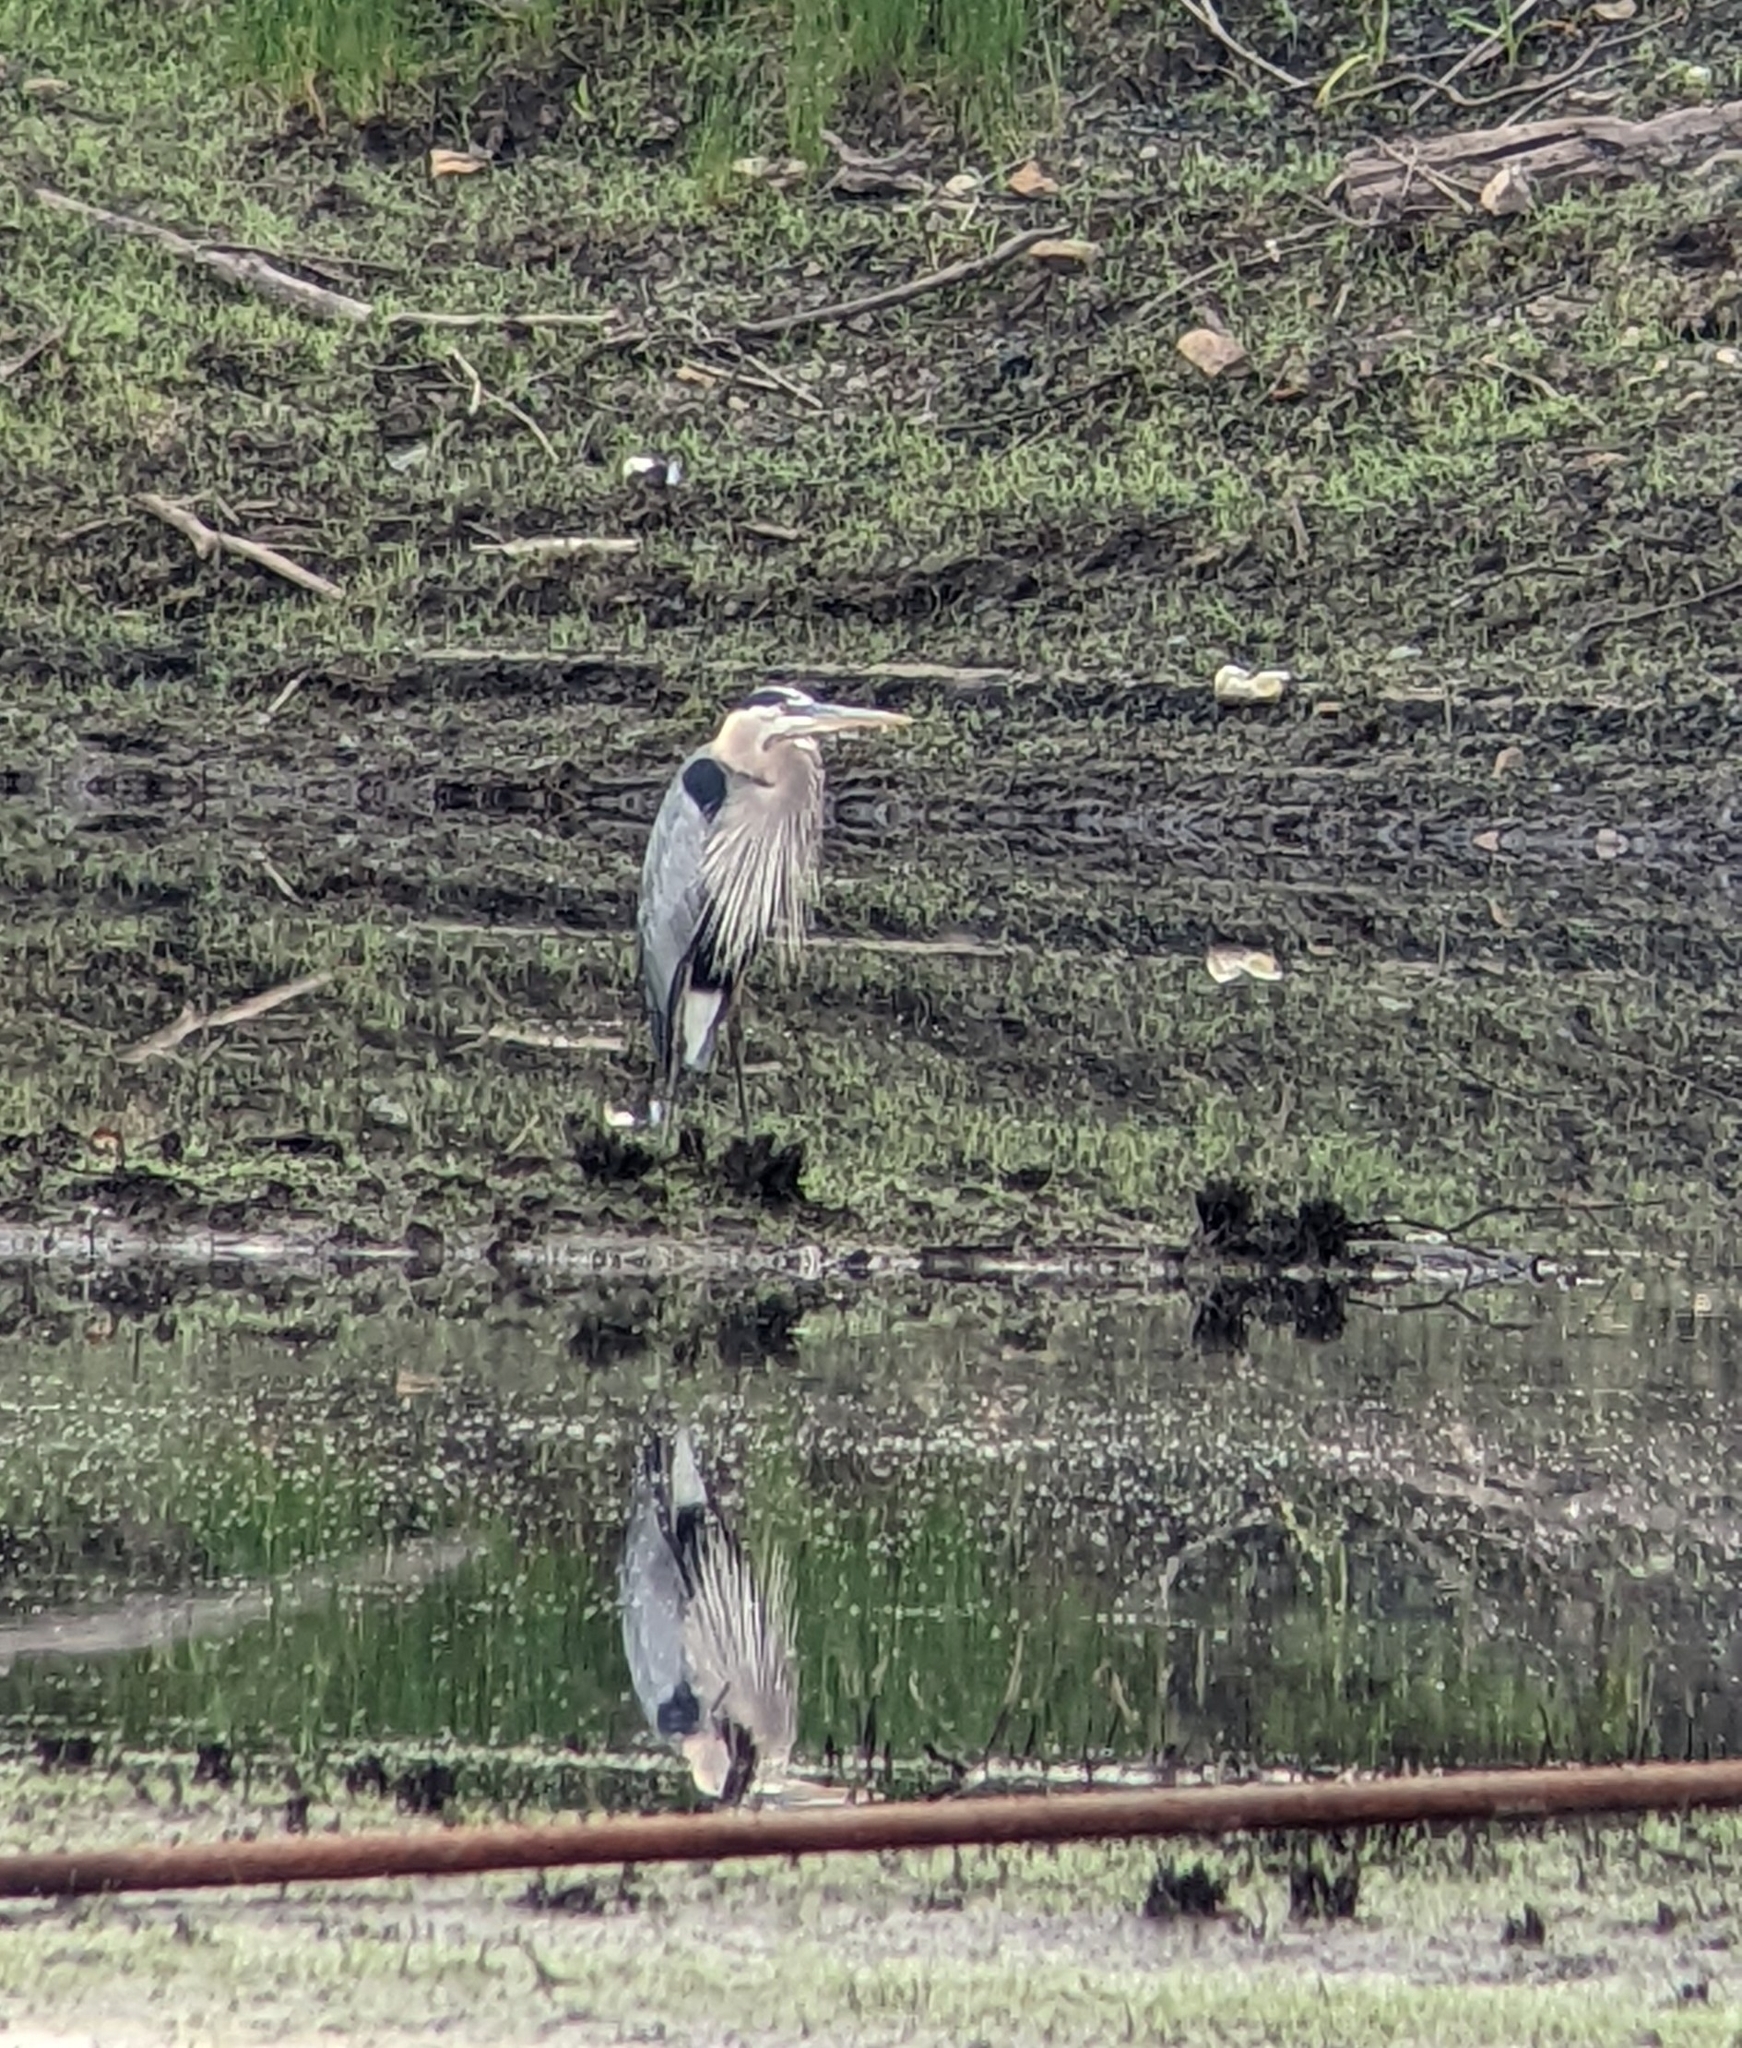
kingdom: Animalia
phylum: Chordata
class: Aves
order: Pelecaniformes
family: Ardeidae
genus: Ardea
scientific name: Ardea herodias
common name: Great blue heron
